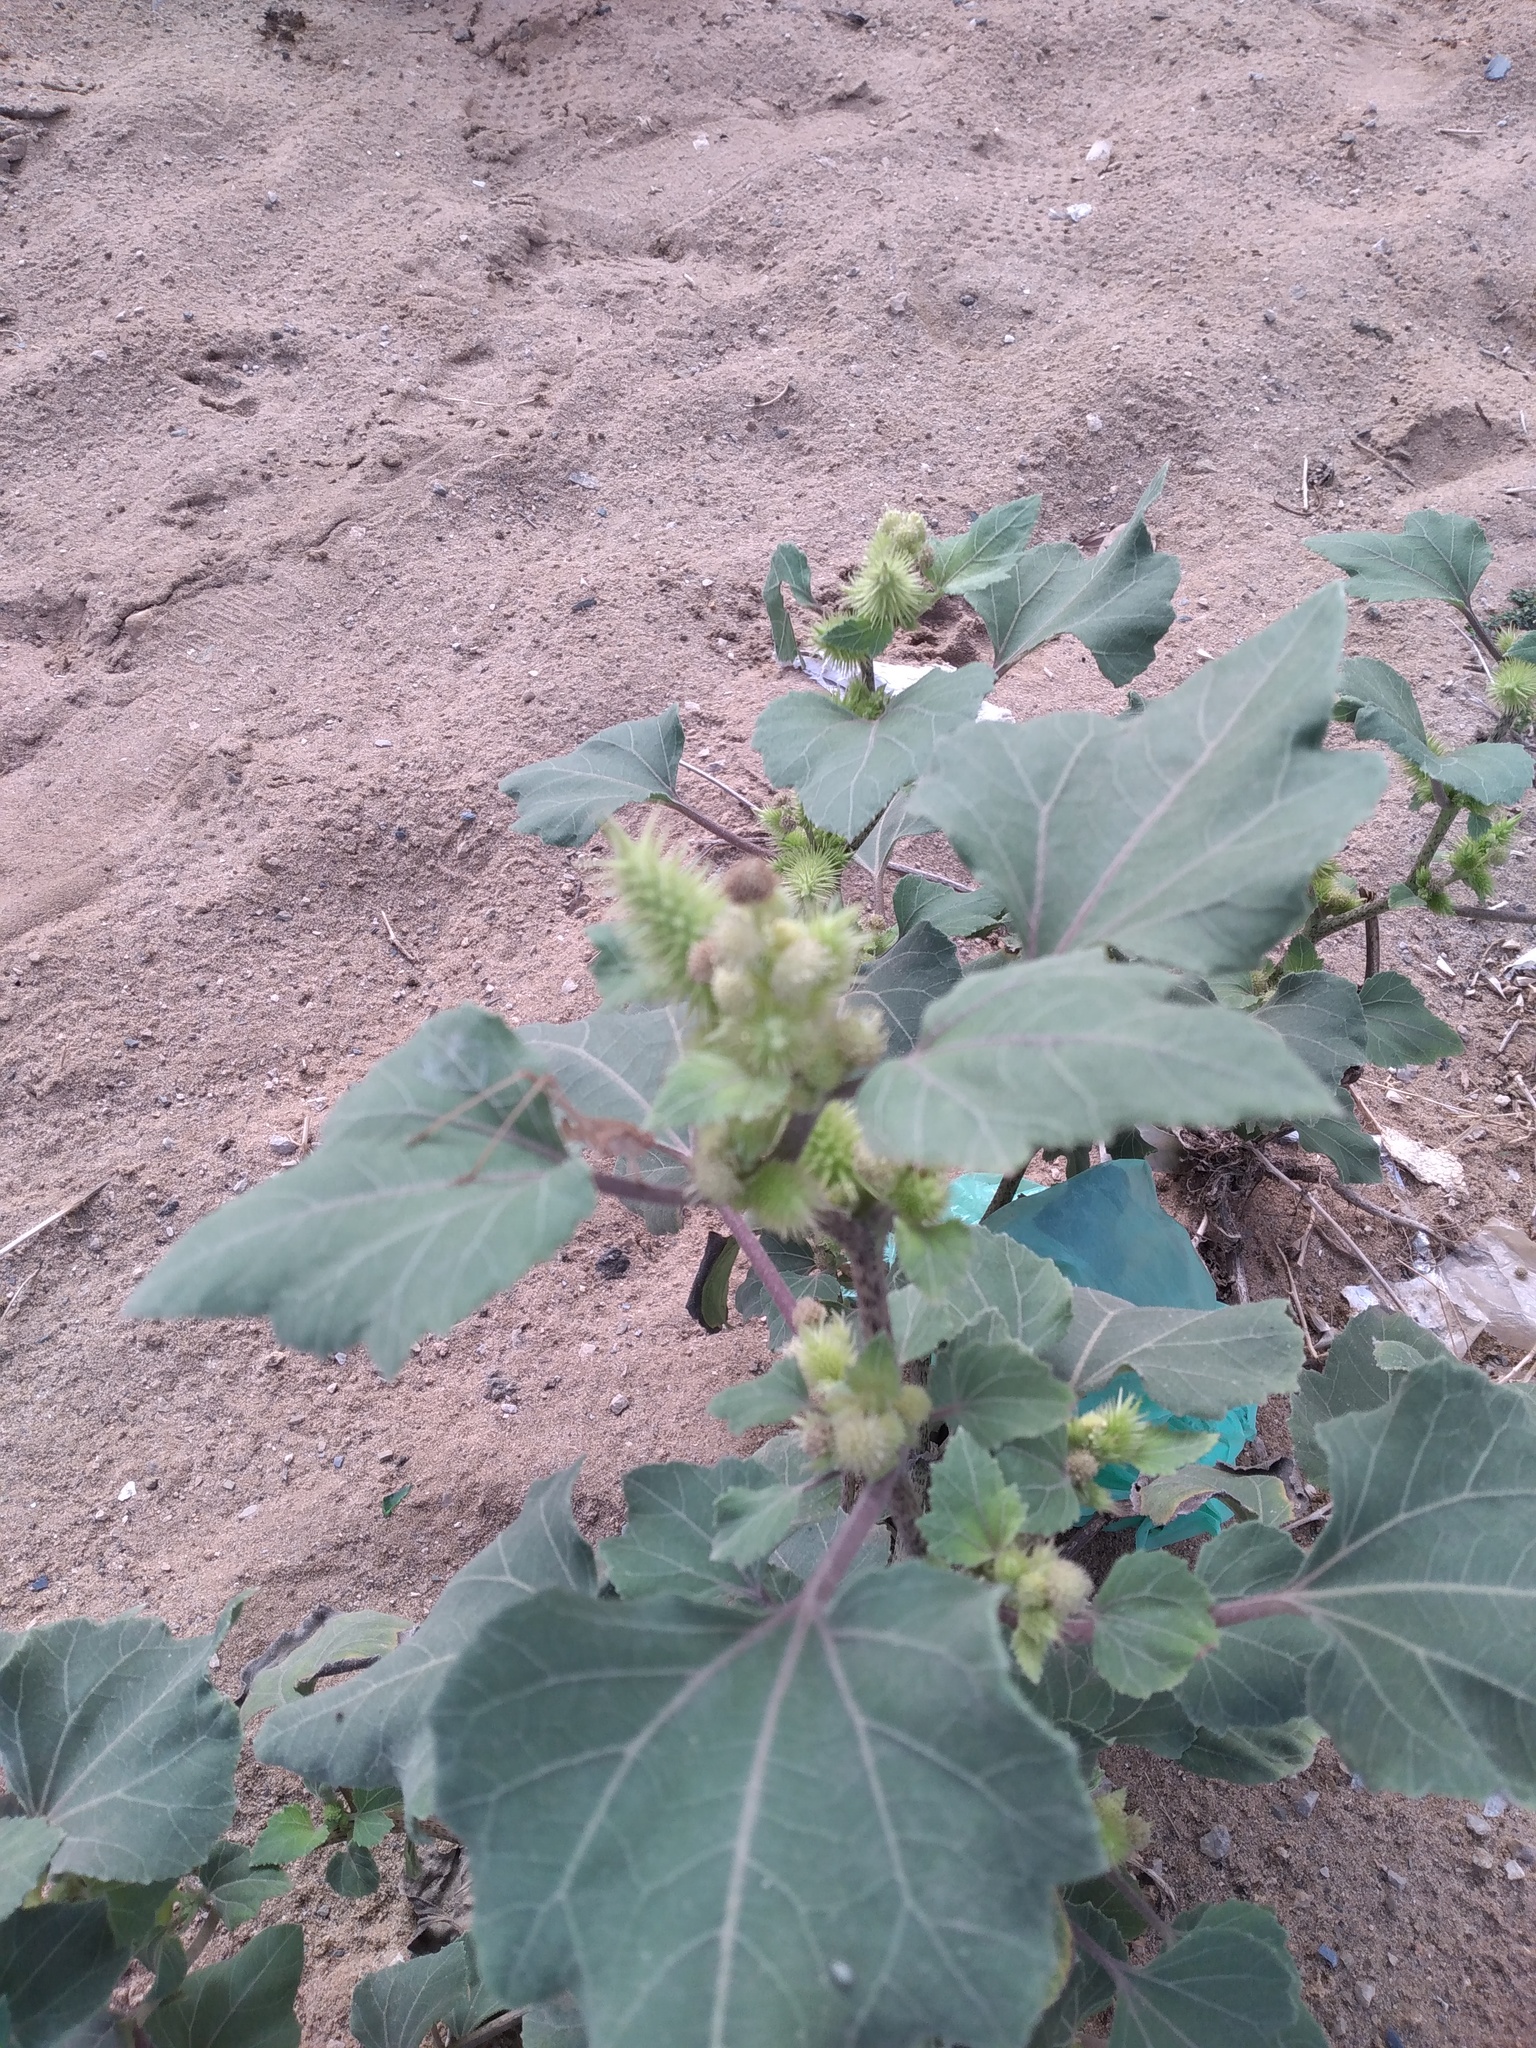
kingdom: Plantae
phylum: Tracheophyta
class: Magnoliopsida
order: Asterales
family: Asteraceae
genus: Xanthium
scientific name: Xanthium strumarium
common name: Rough cocklebur
